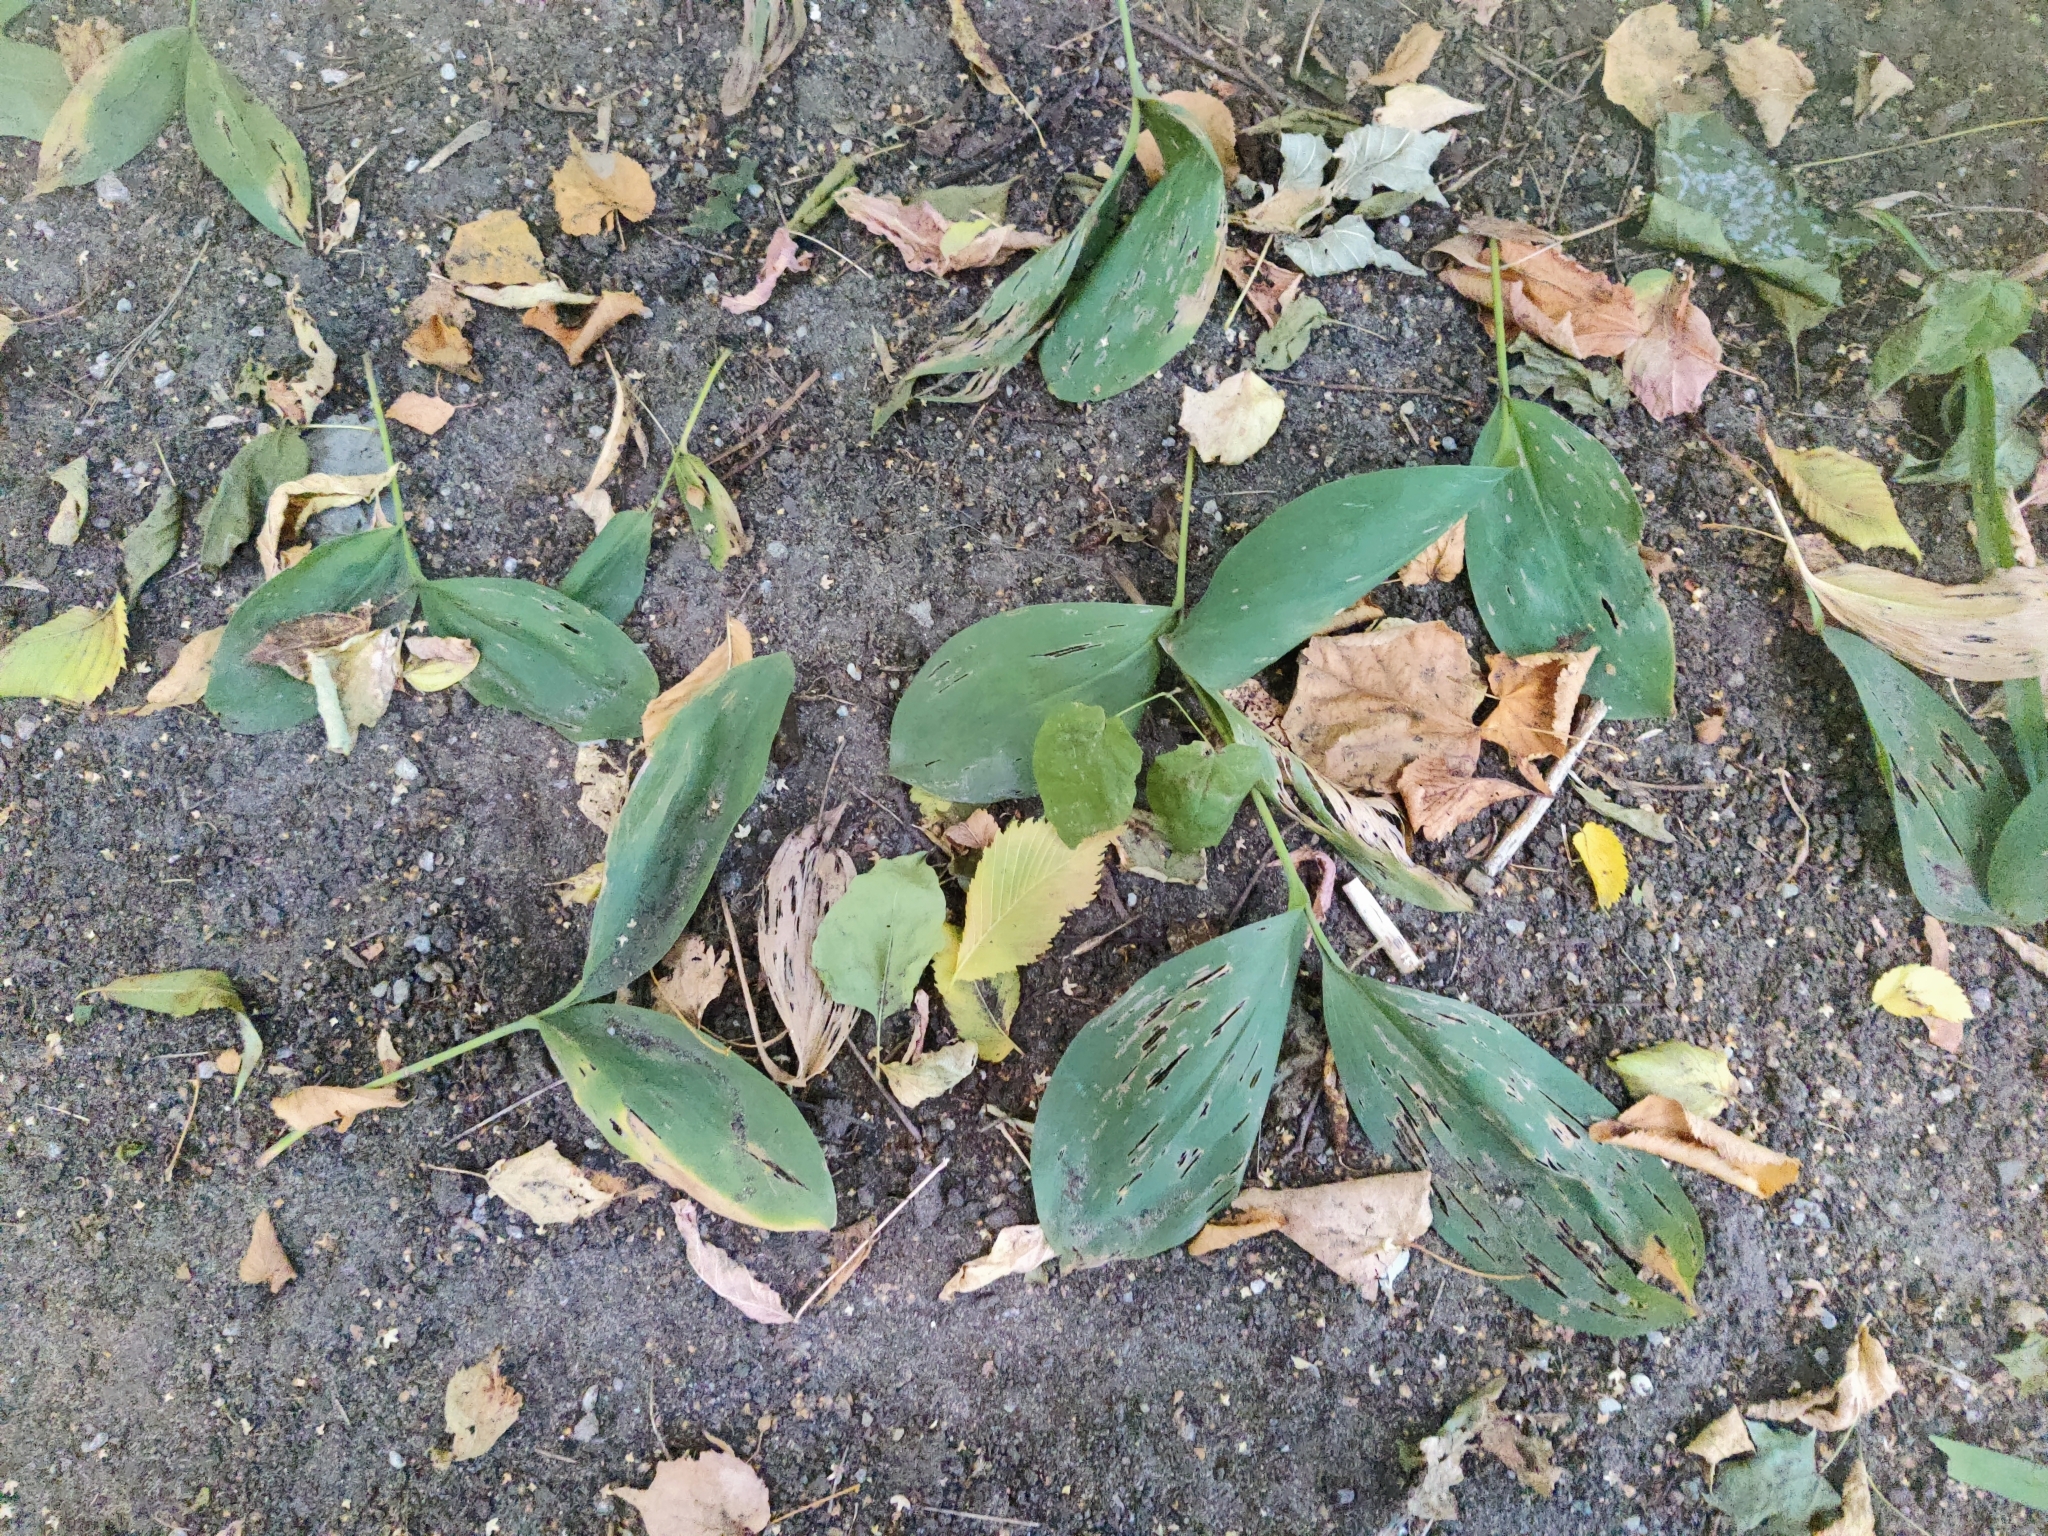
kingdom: Plantae
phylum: Tracheophyta
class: Liliopsida
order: Asparagales
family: Asparagaceae
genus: Convallaria
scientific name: Convallaria majalis
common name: Lily-of-the-valley
